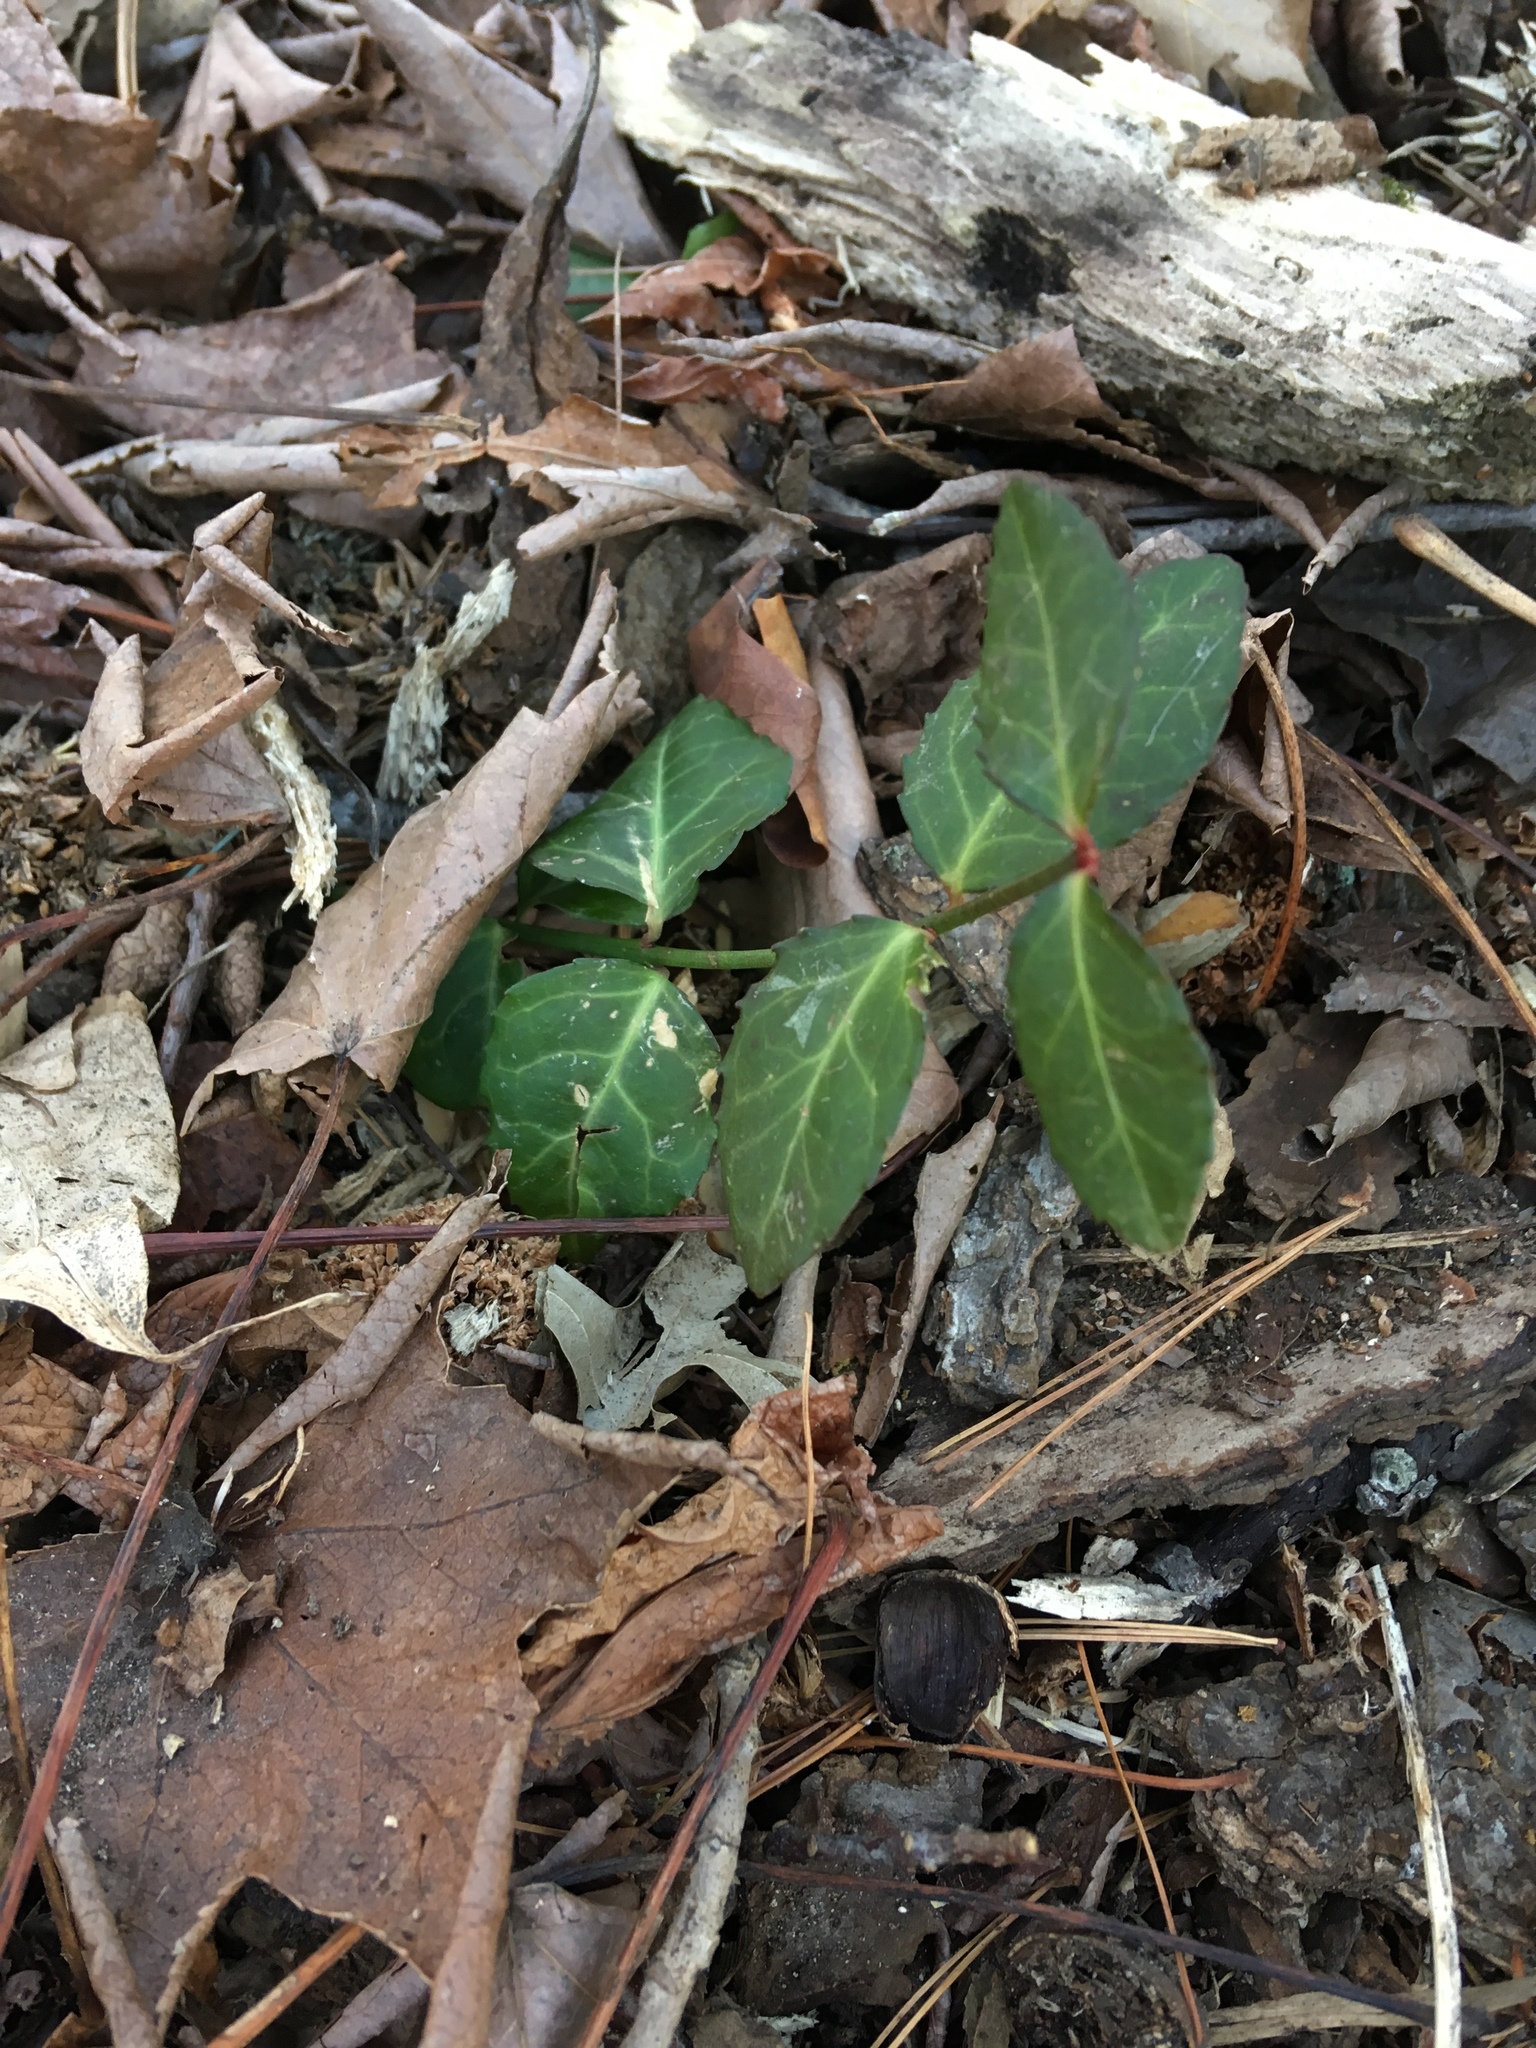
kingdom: Plantae
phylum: Tracheophyta
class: Magnoliopsida
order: Celastrales
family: Celastraceae
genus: Euonymus
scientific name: Euonymus fortunei
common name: Climbing euonymus
